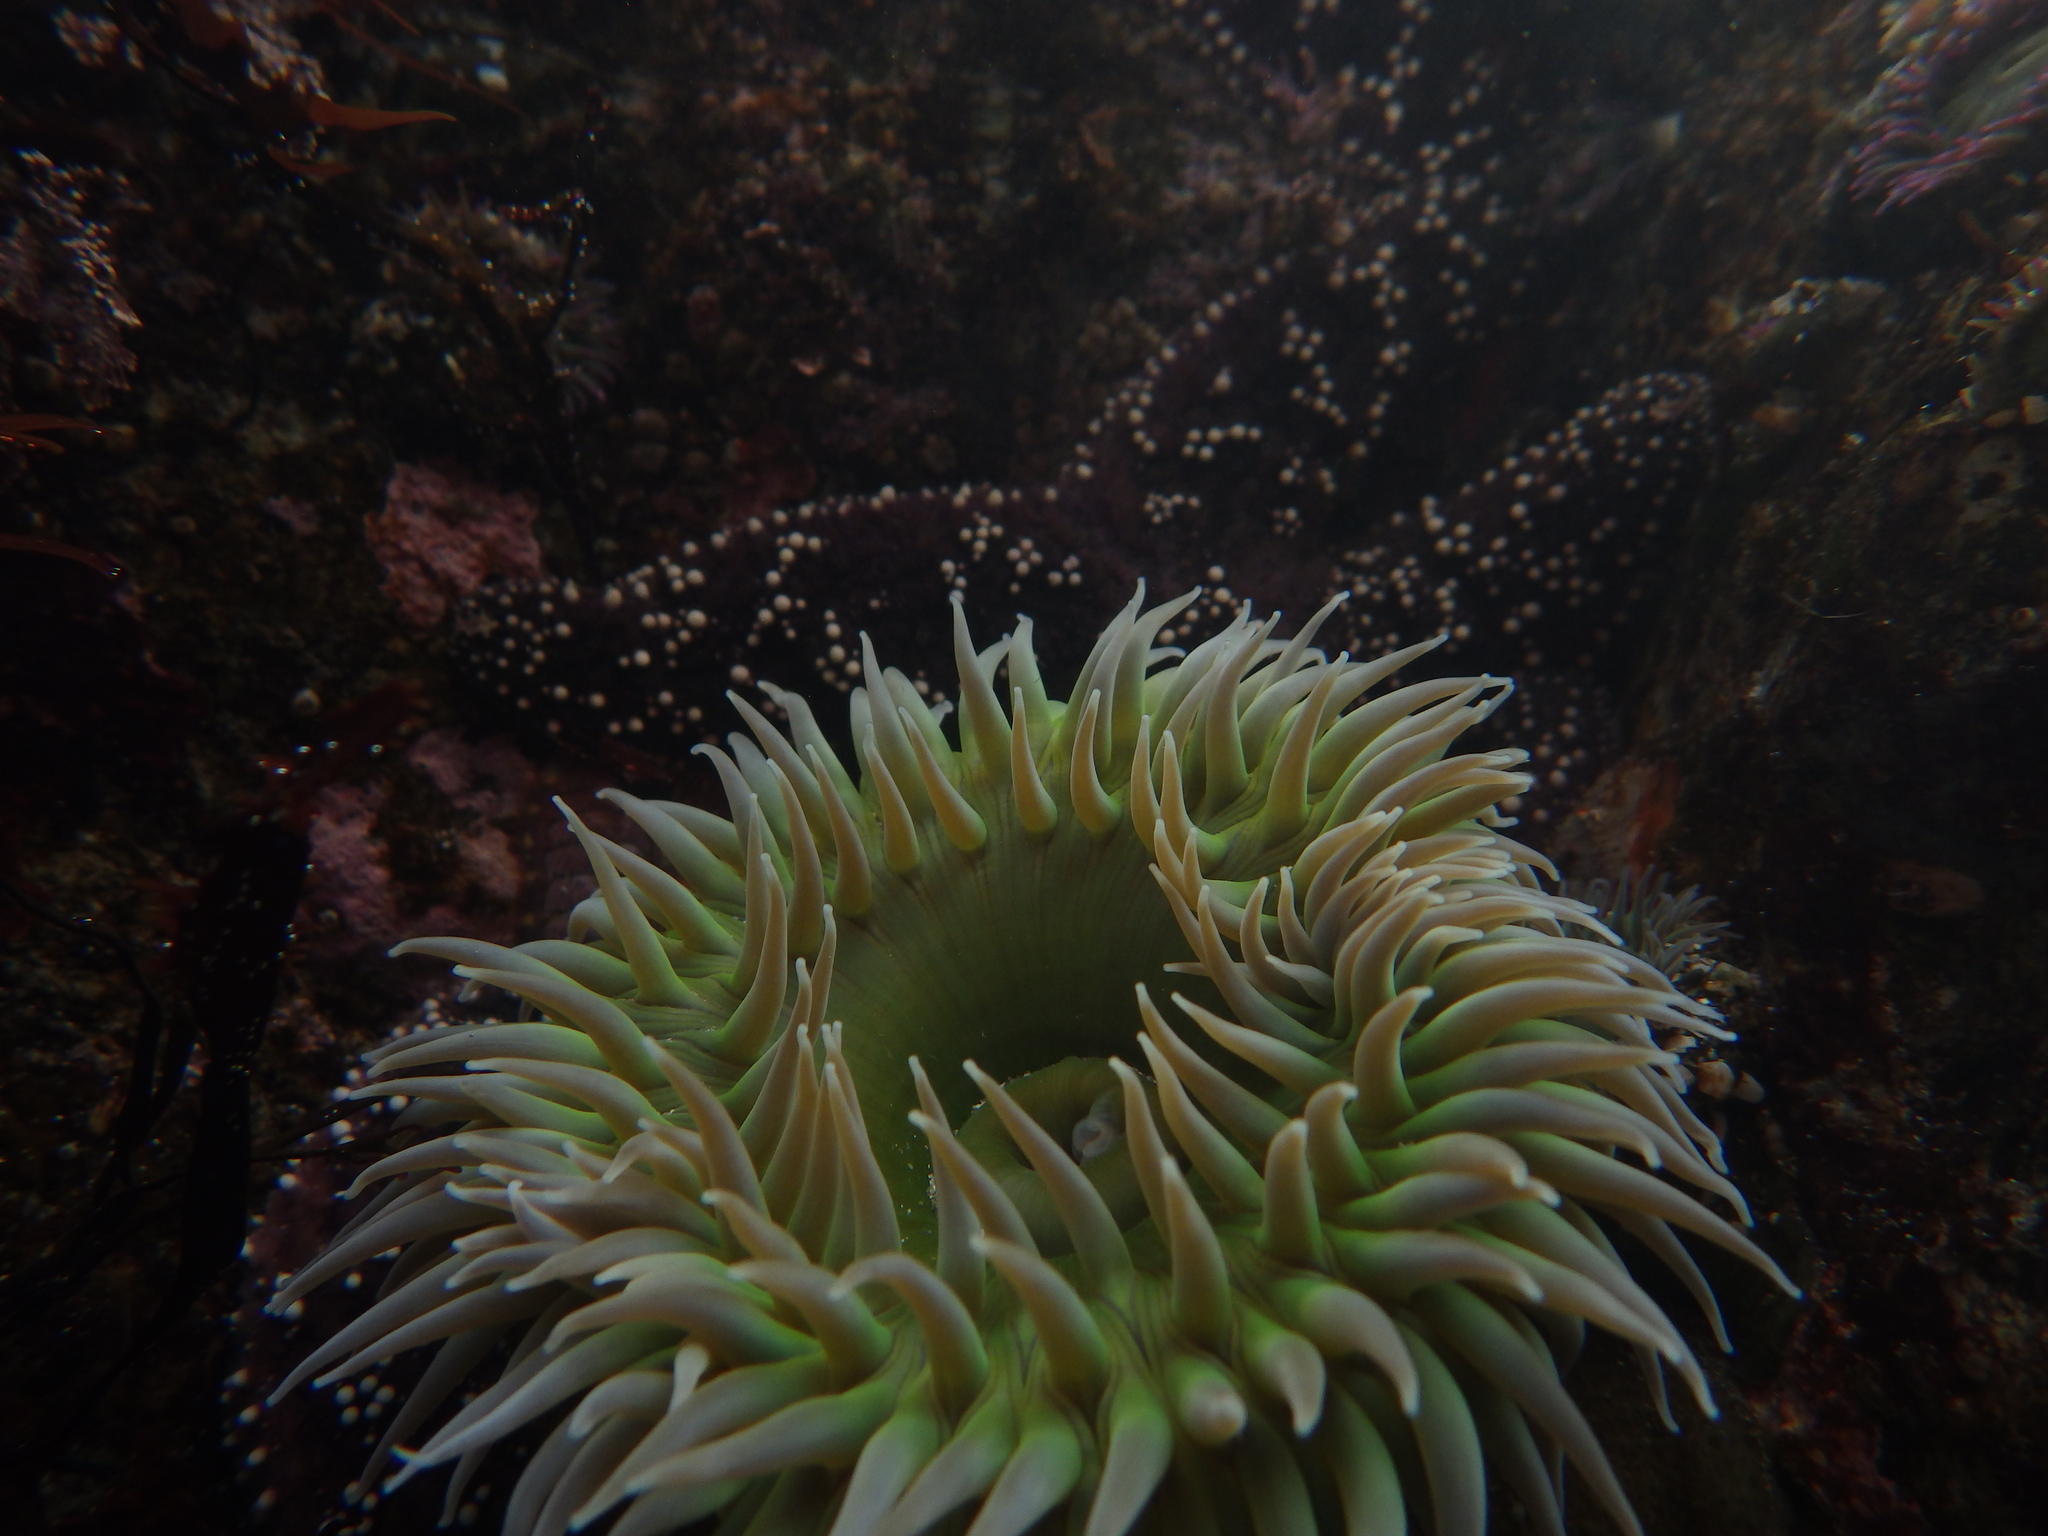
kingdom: Animalia
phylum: Cnidaria
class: Anthozoa
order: Actiniaria
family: Actiniidae
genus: Anthopleura
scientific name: Anthopleura xanthogrammica
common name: Giant green anemone
